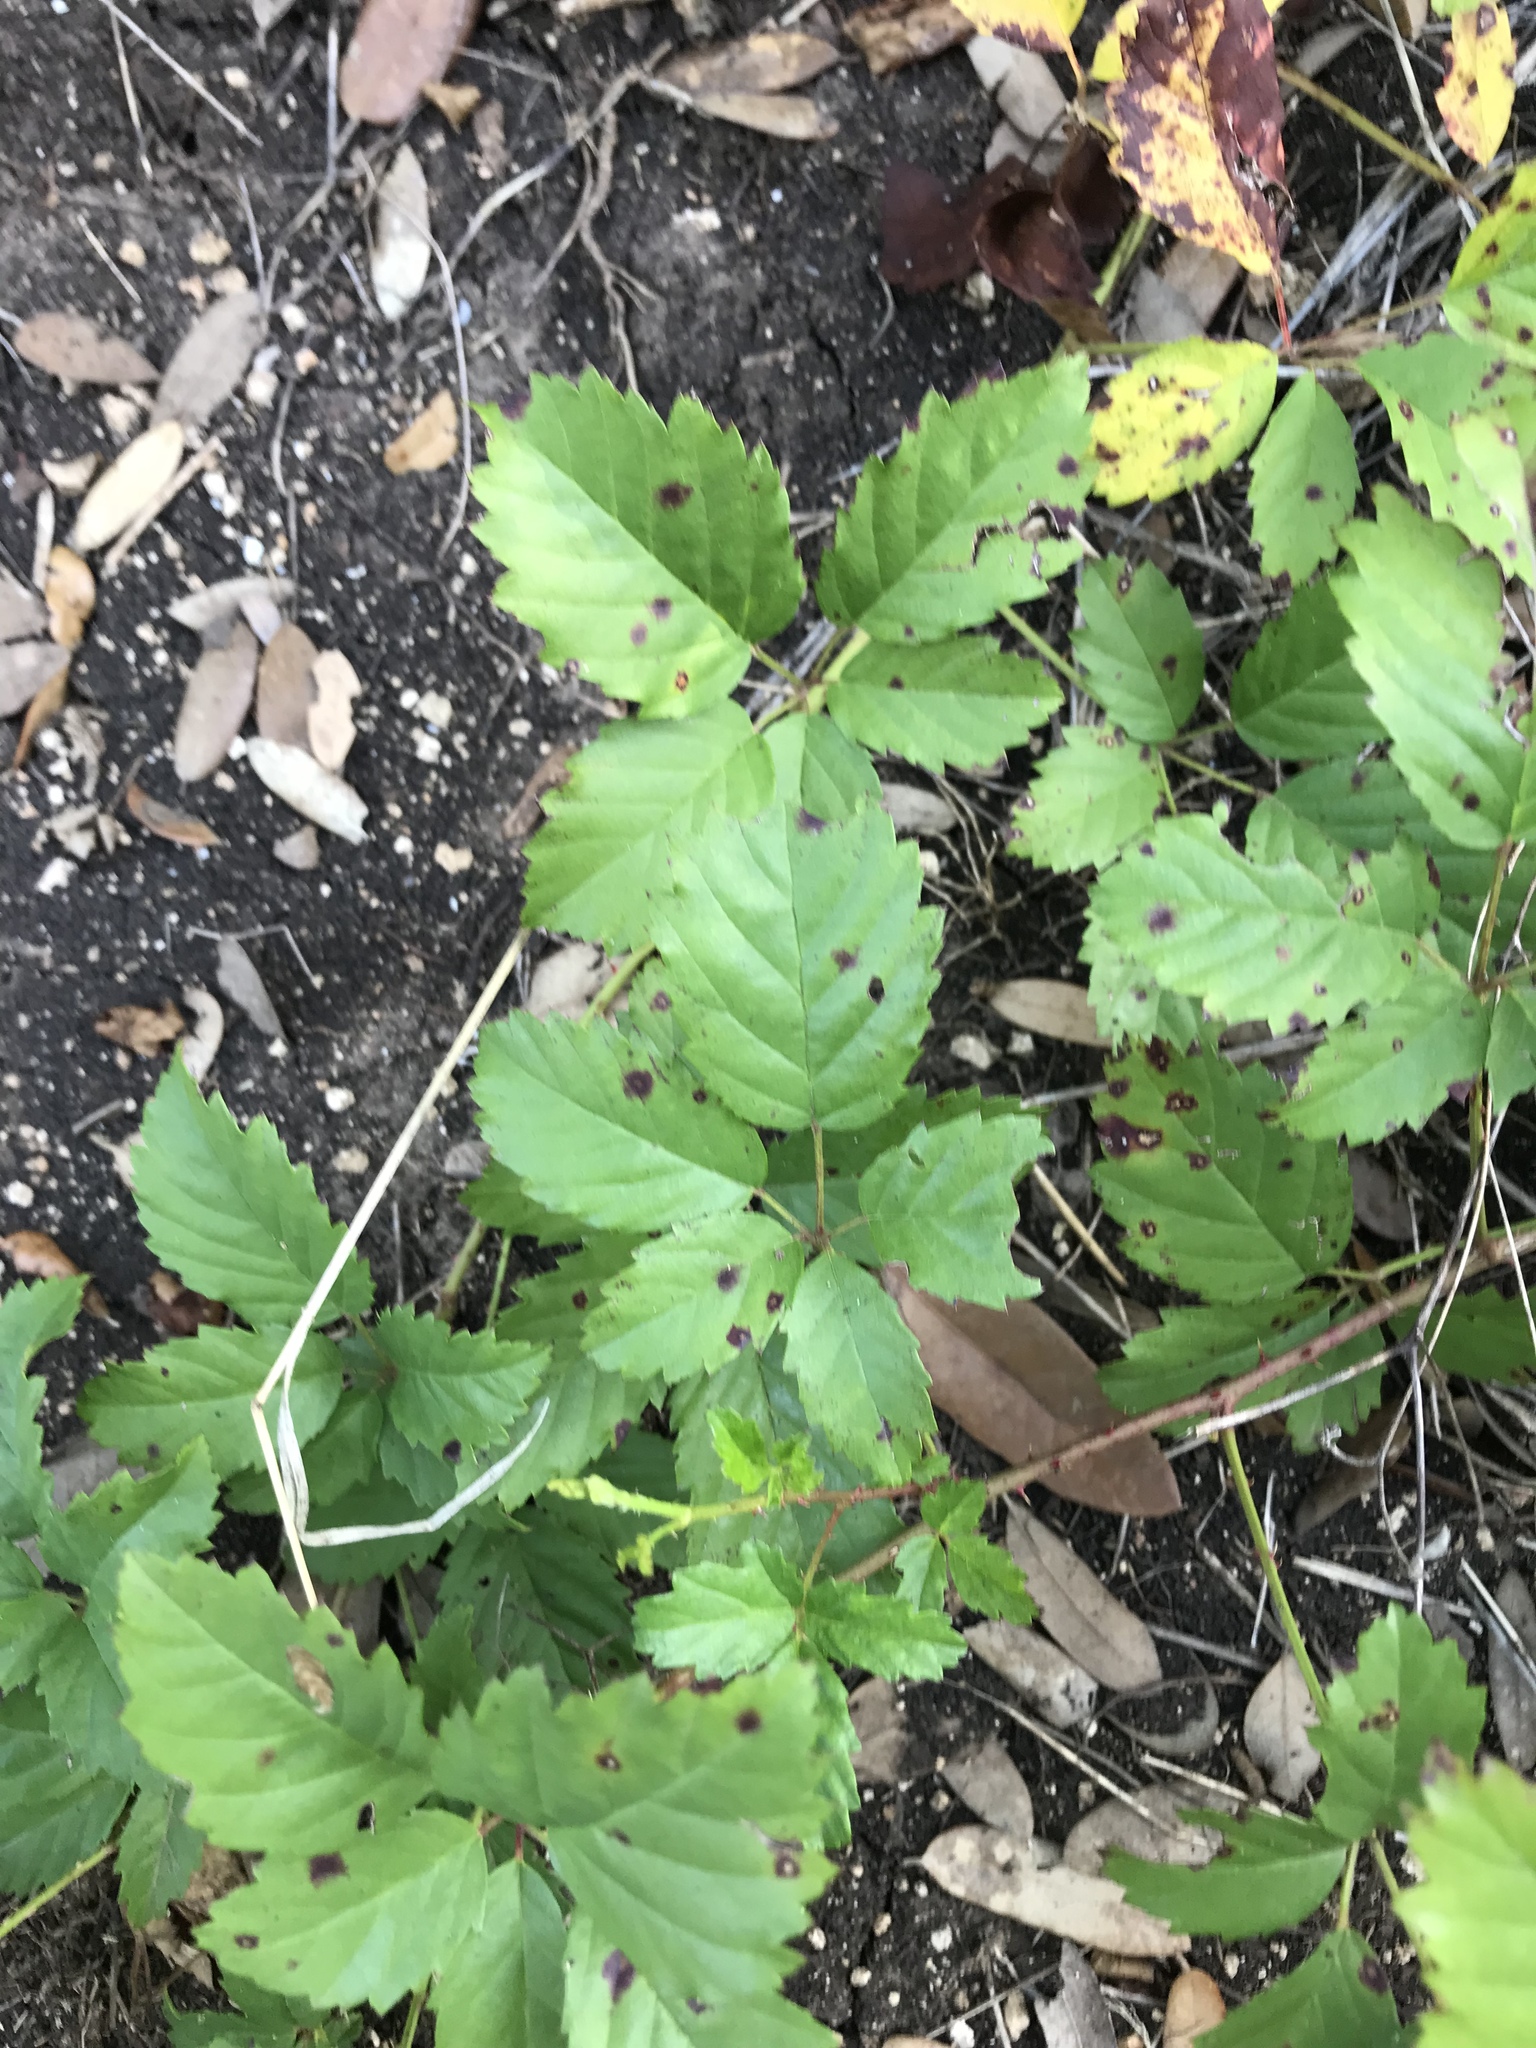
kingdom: Plantae
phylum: Tracheophyta
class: Magnoliopsida
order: Rosales
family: Rosaceae
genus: Rubus
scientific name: Rubus trivialis
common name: Southern dewberry
